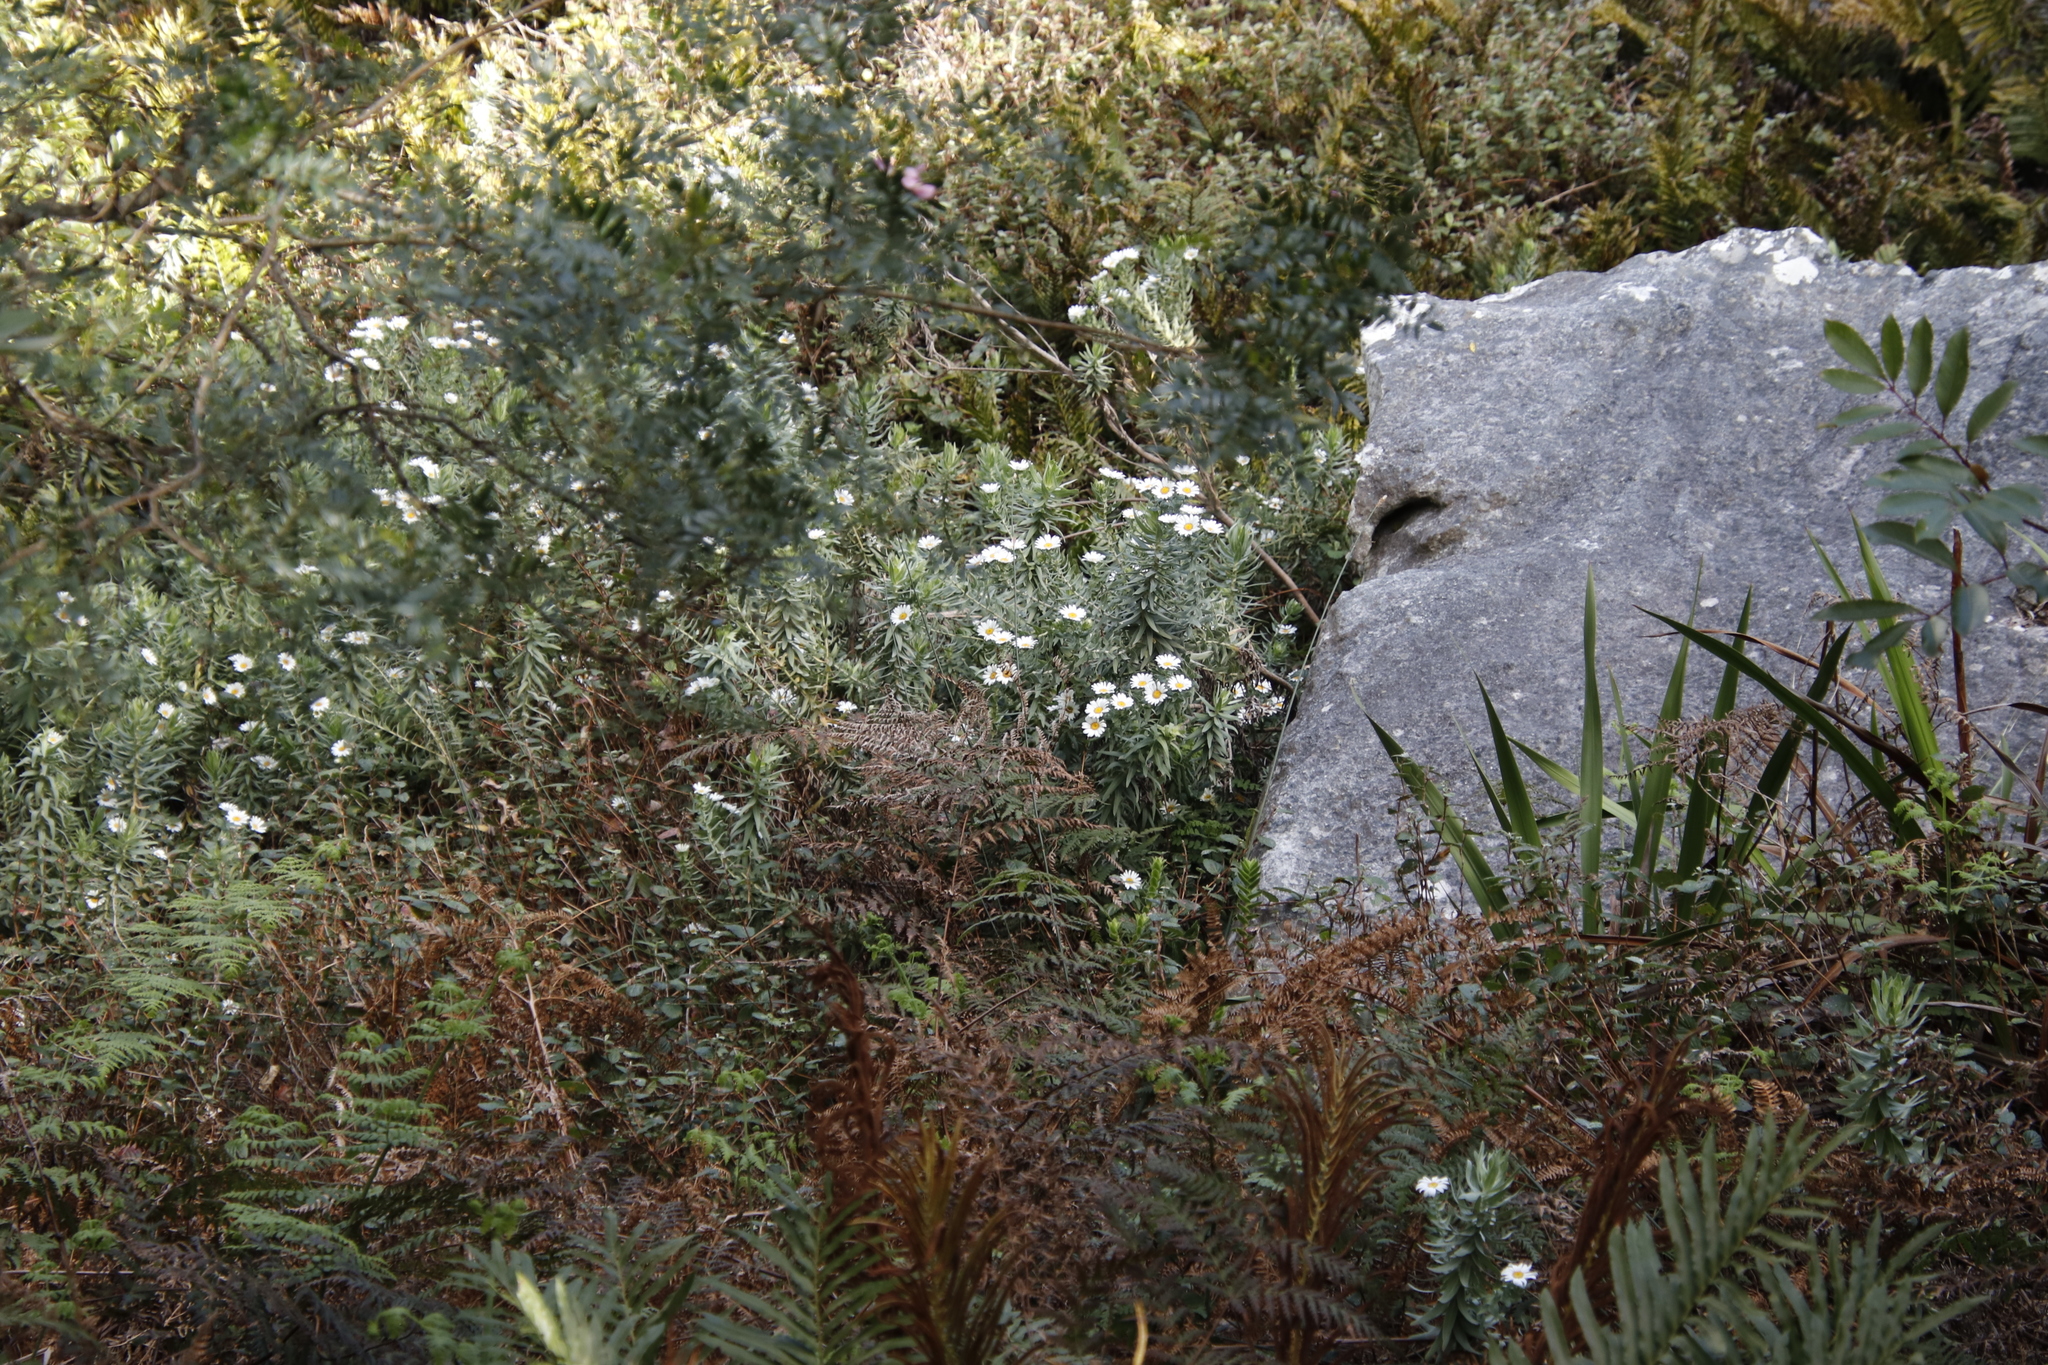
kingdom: Plantae
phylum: Tracheophyta
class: Magnoliopsida
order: Asterales
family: Asteraceae
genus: Osmitopsis
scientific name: Osmitopsis asteriscoides
